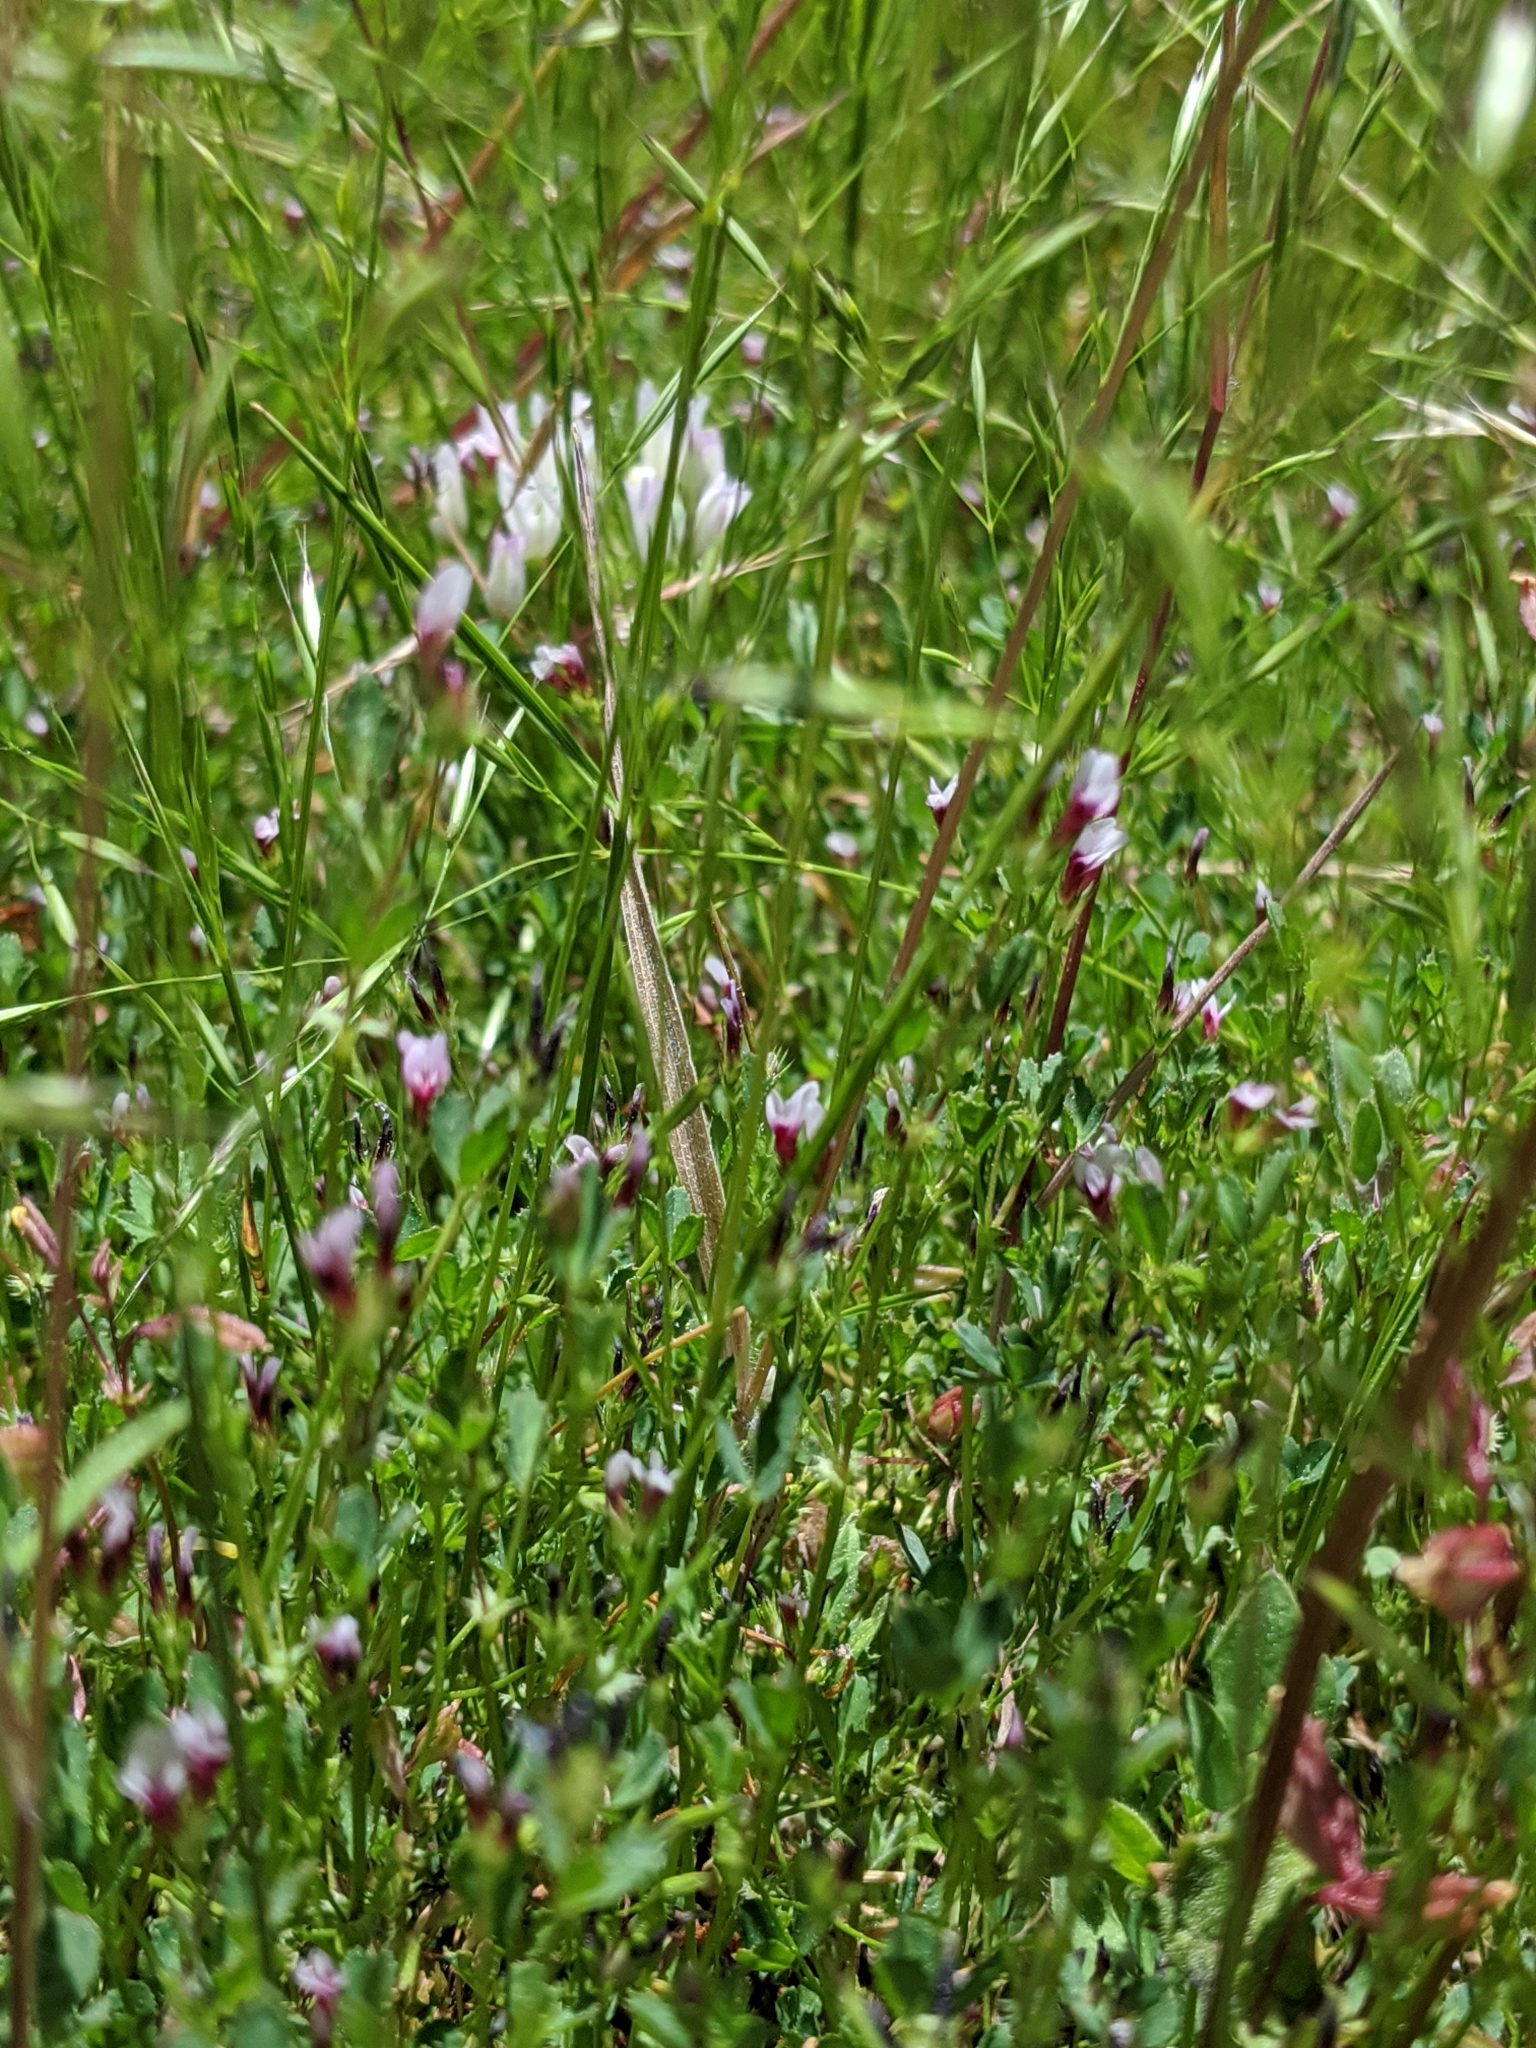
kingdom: Plantae
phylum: Tracheophyta
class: Magnoliopsida
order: Fabales
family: Fabaceae
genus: Trifolium
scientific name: Trifolium monanthum
